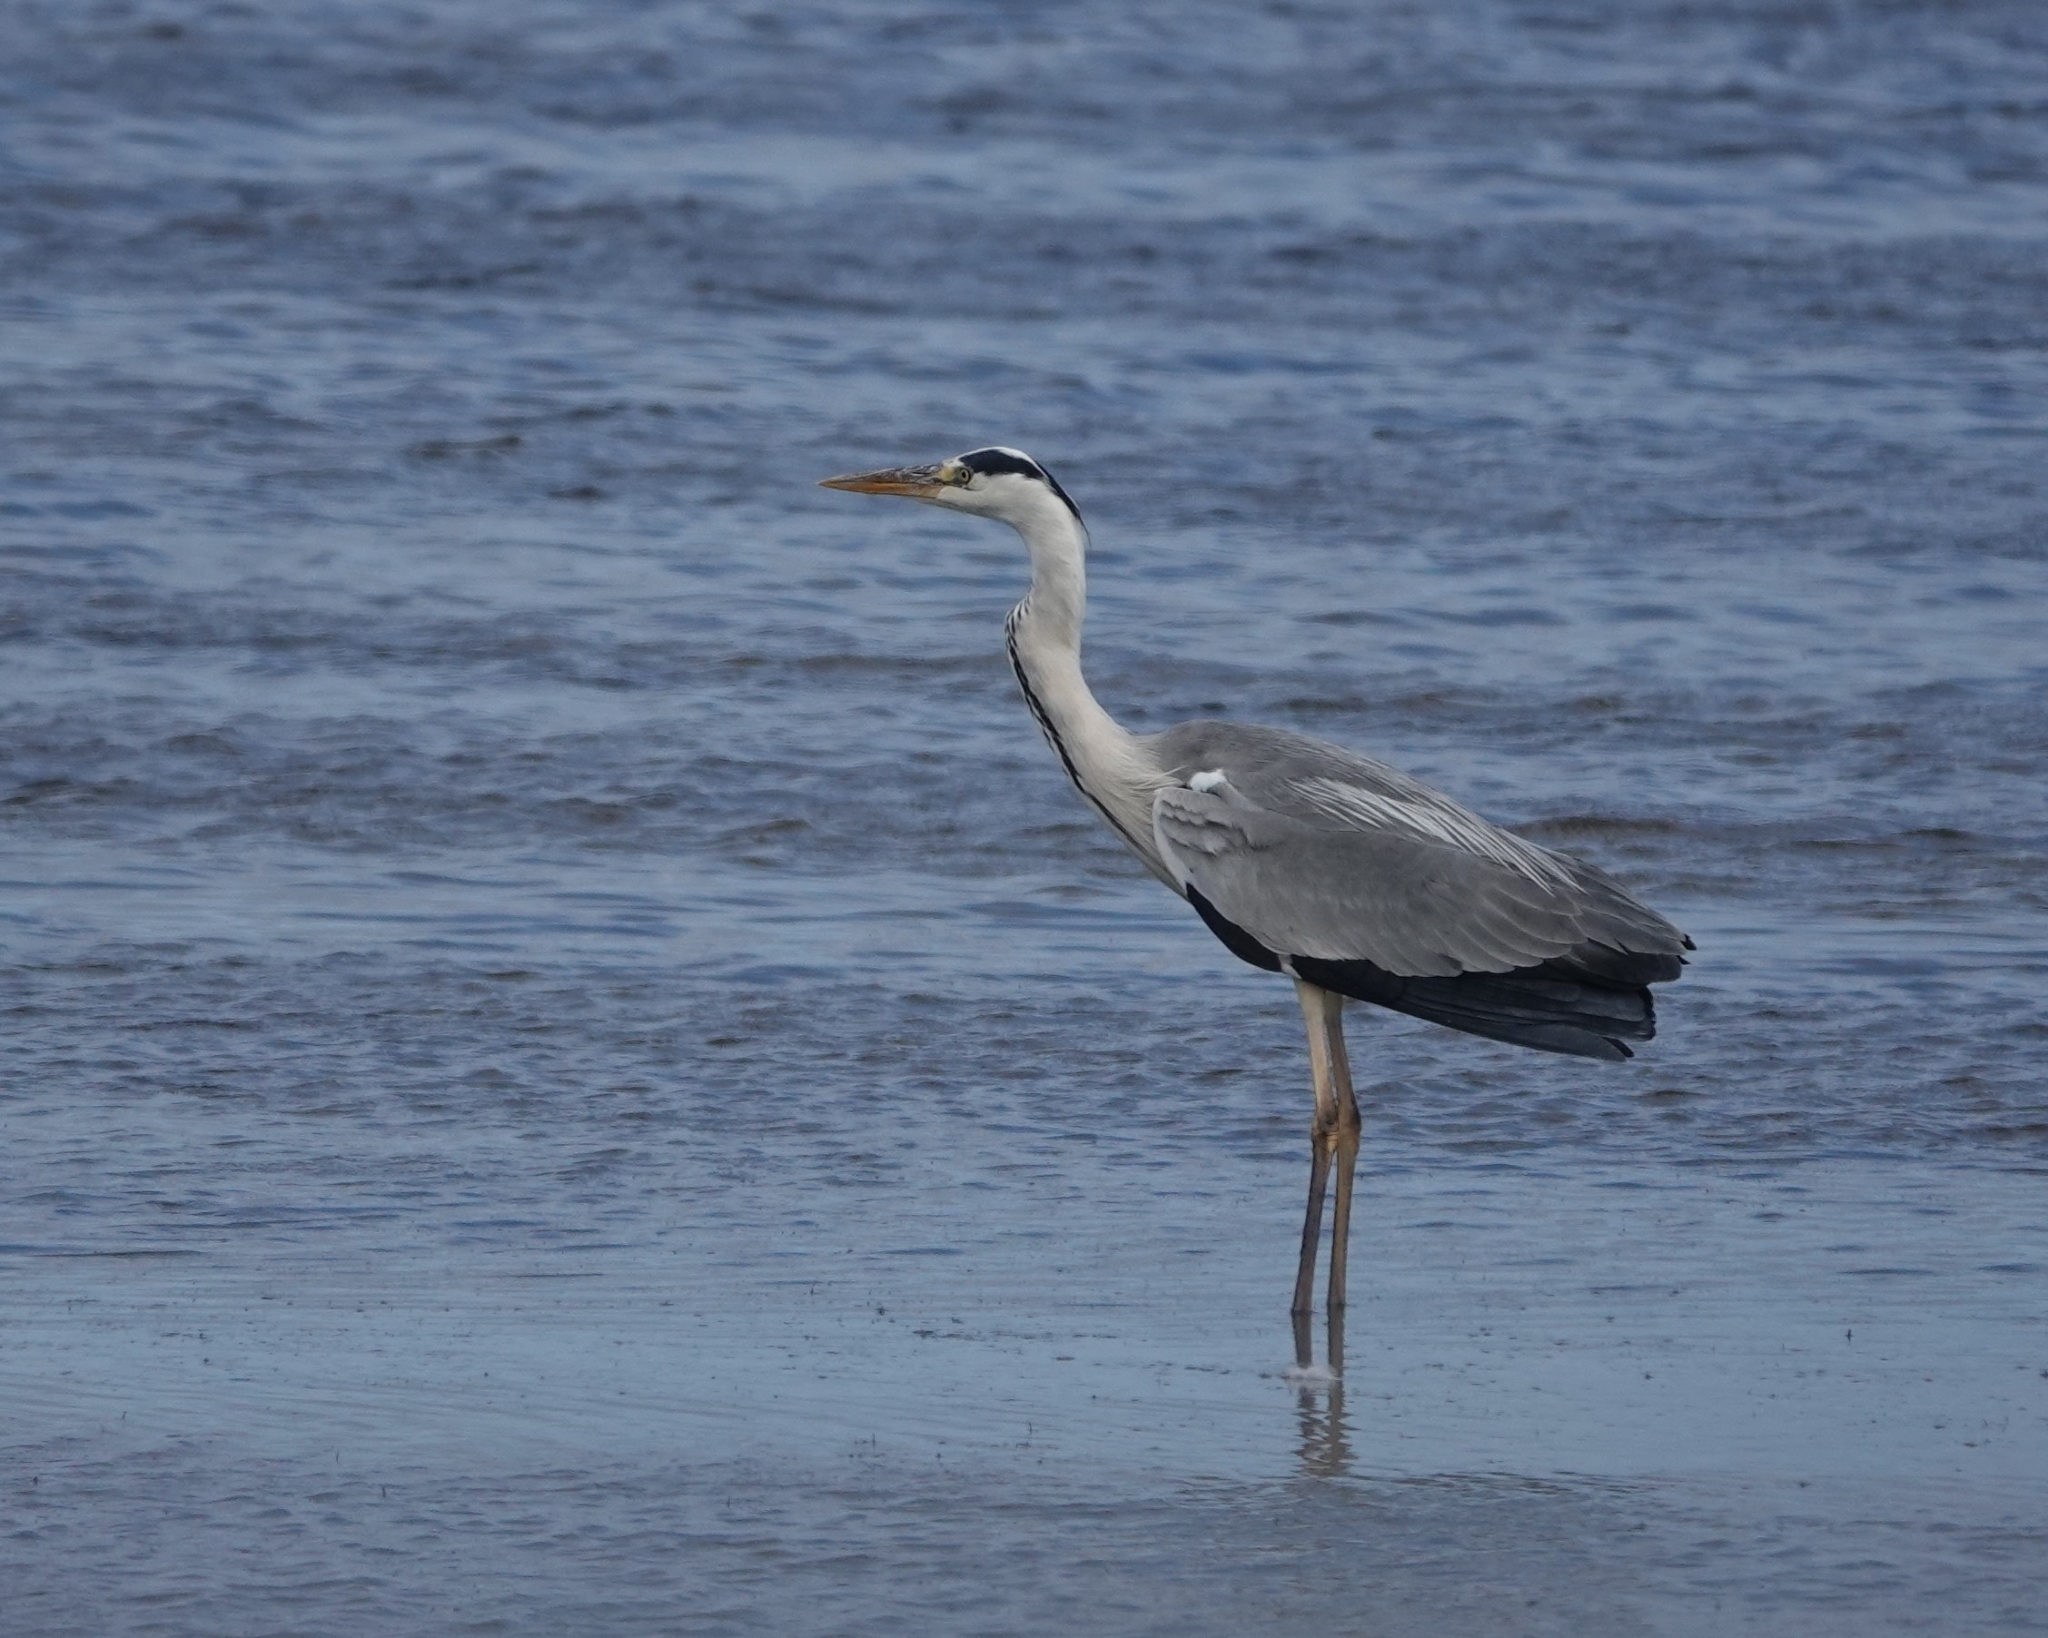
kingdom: Animalia
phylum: Chordata
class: Aves
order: Pelecaniformes
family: Ardeidae
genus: Ardea
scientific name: Ardea cinerea
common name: Grey heron
